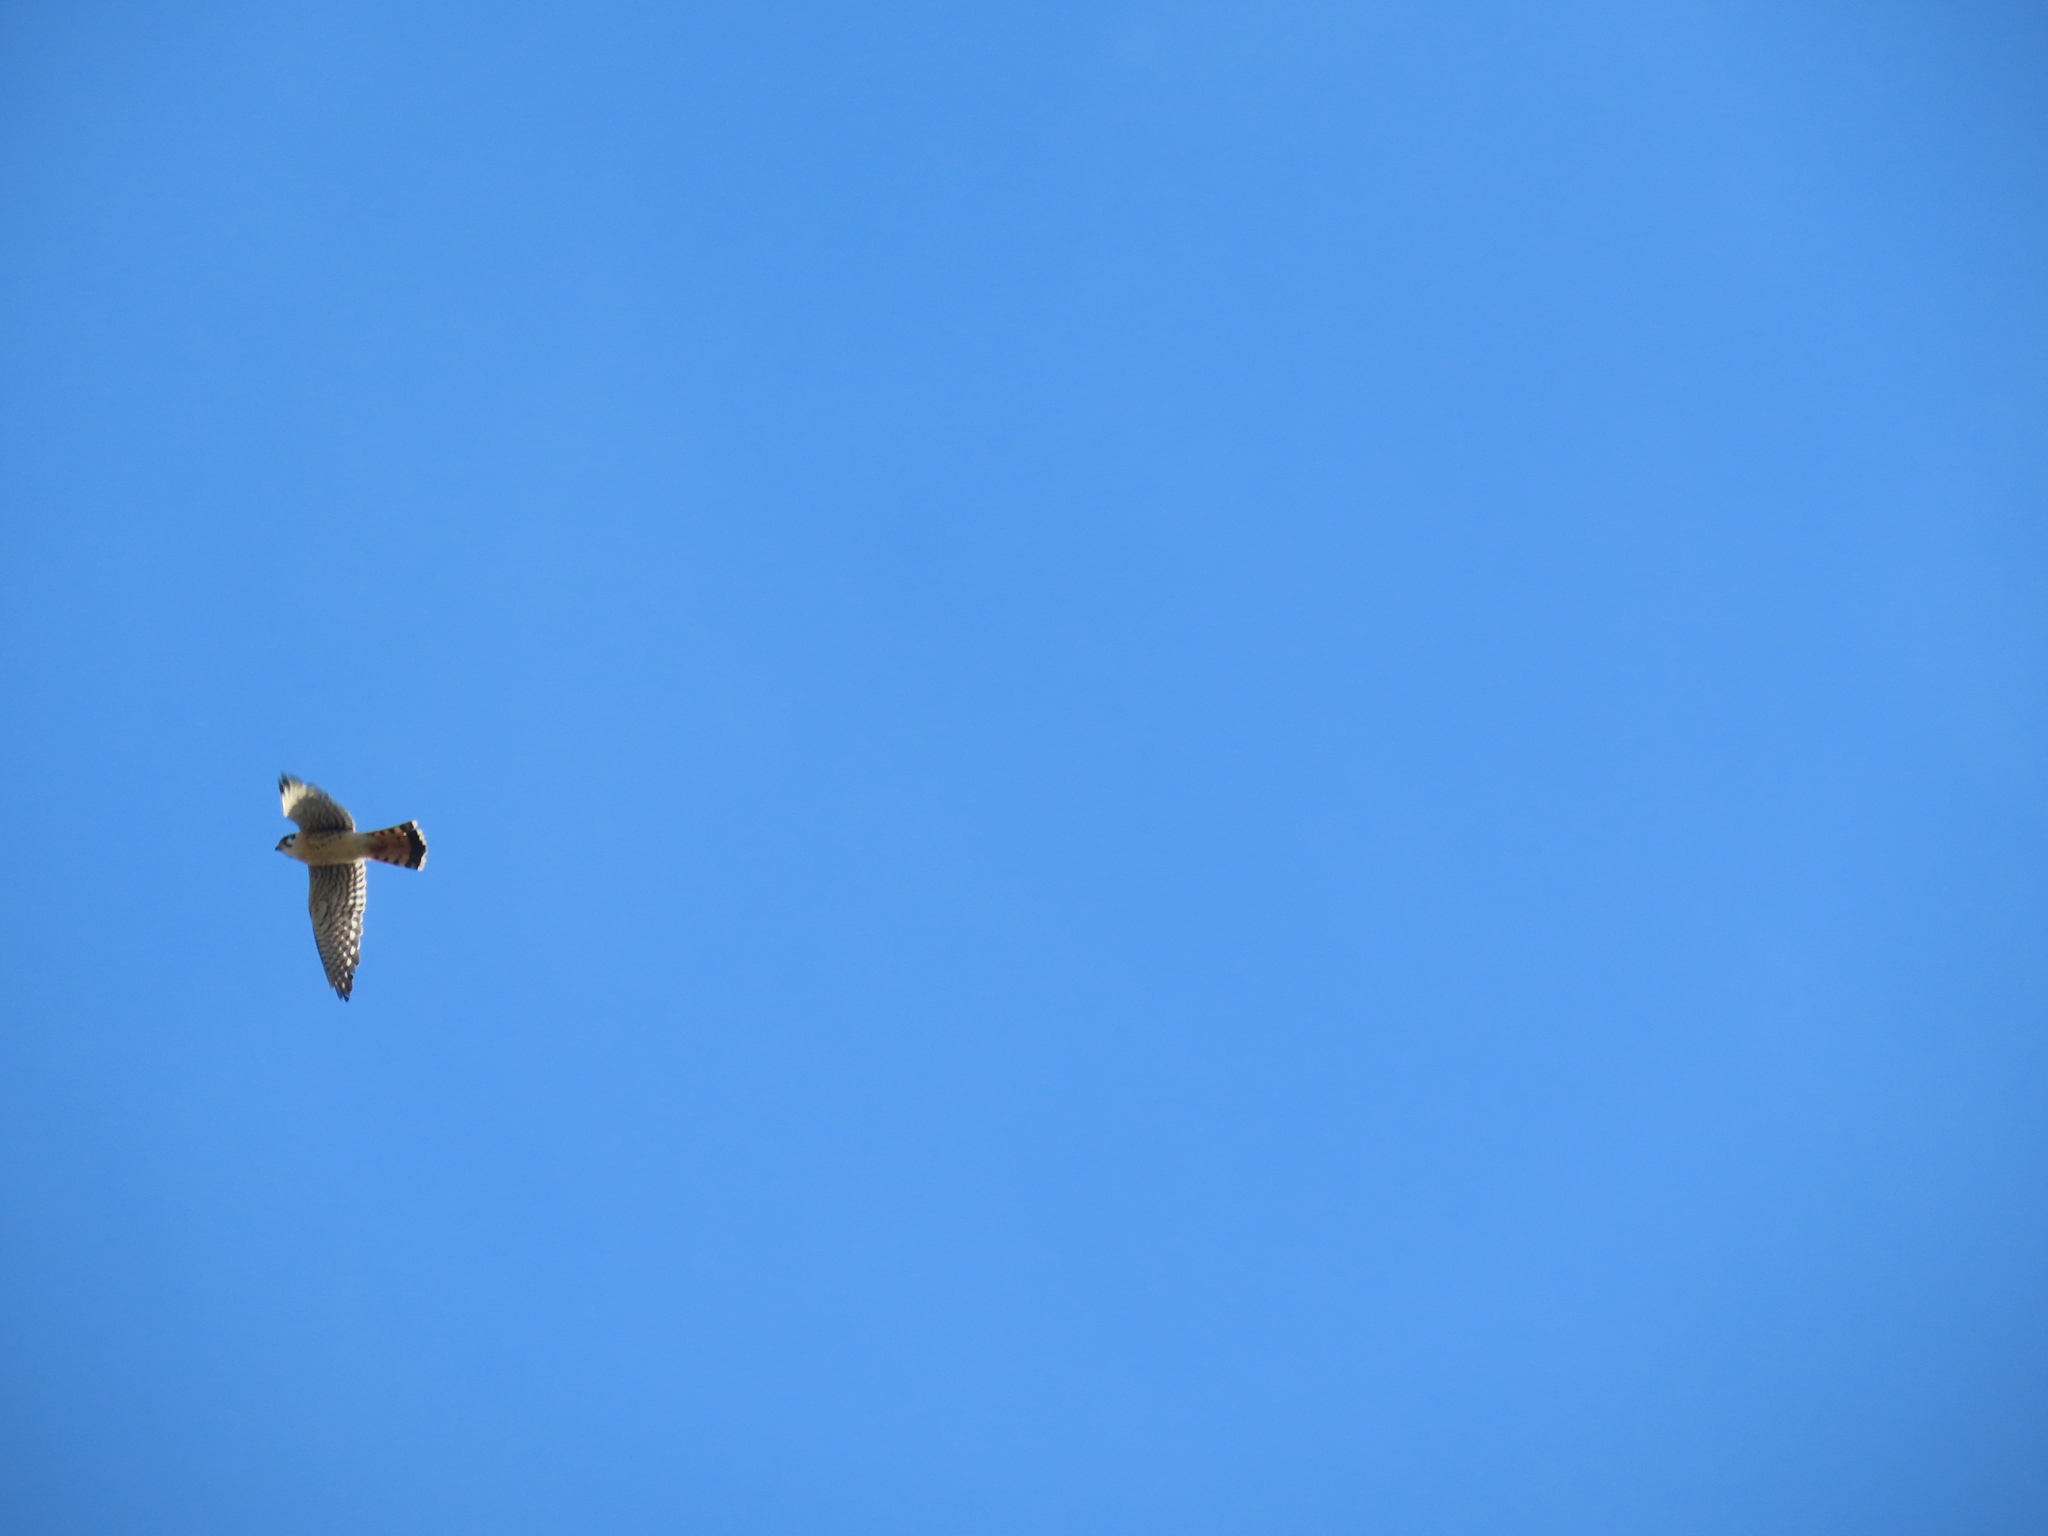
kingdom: Animalia
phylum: Chordata
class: Aves
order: Falconiformes
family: Falconidae
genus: Falco
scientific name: Falco sparverius
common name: American kestrel
